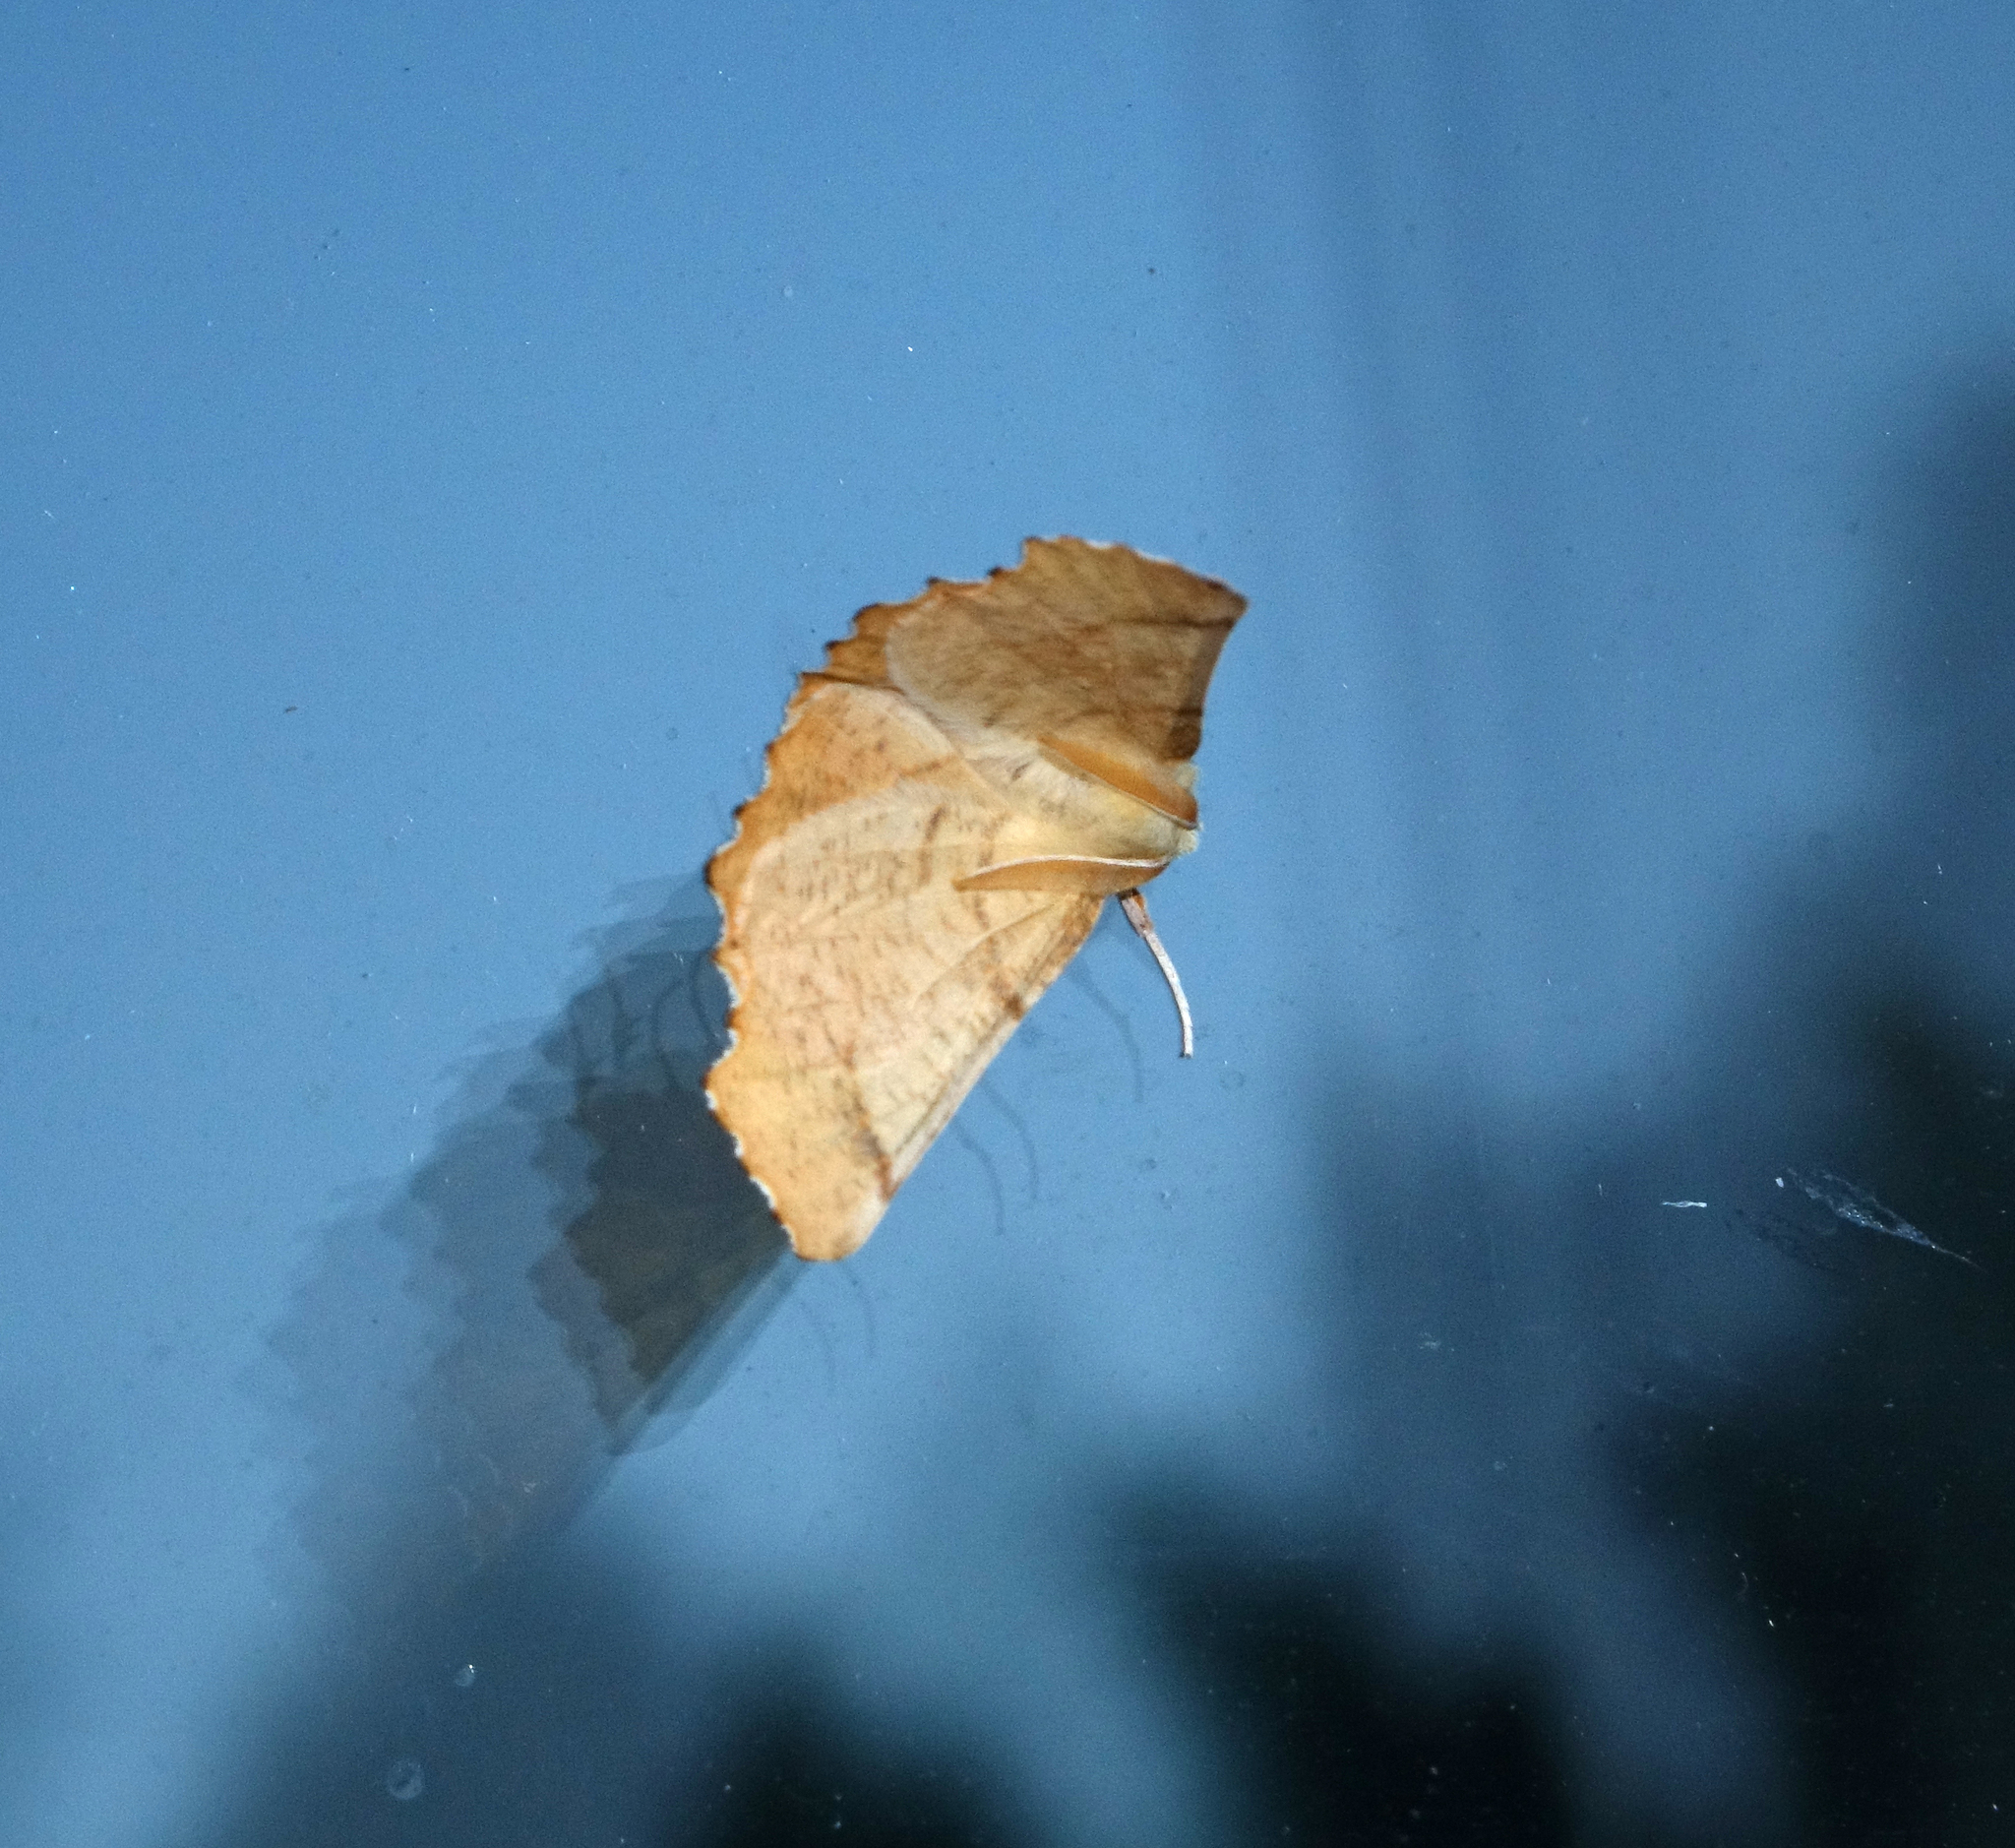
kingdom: Animalia
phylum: Arthropoda
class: Insecta
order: Lepidoptera
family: Geometridae
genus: Ennomos
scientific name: Ennomos autumnaria
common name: Large thorn
